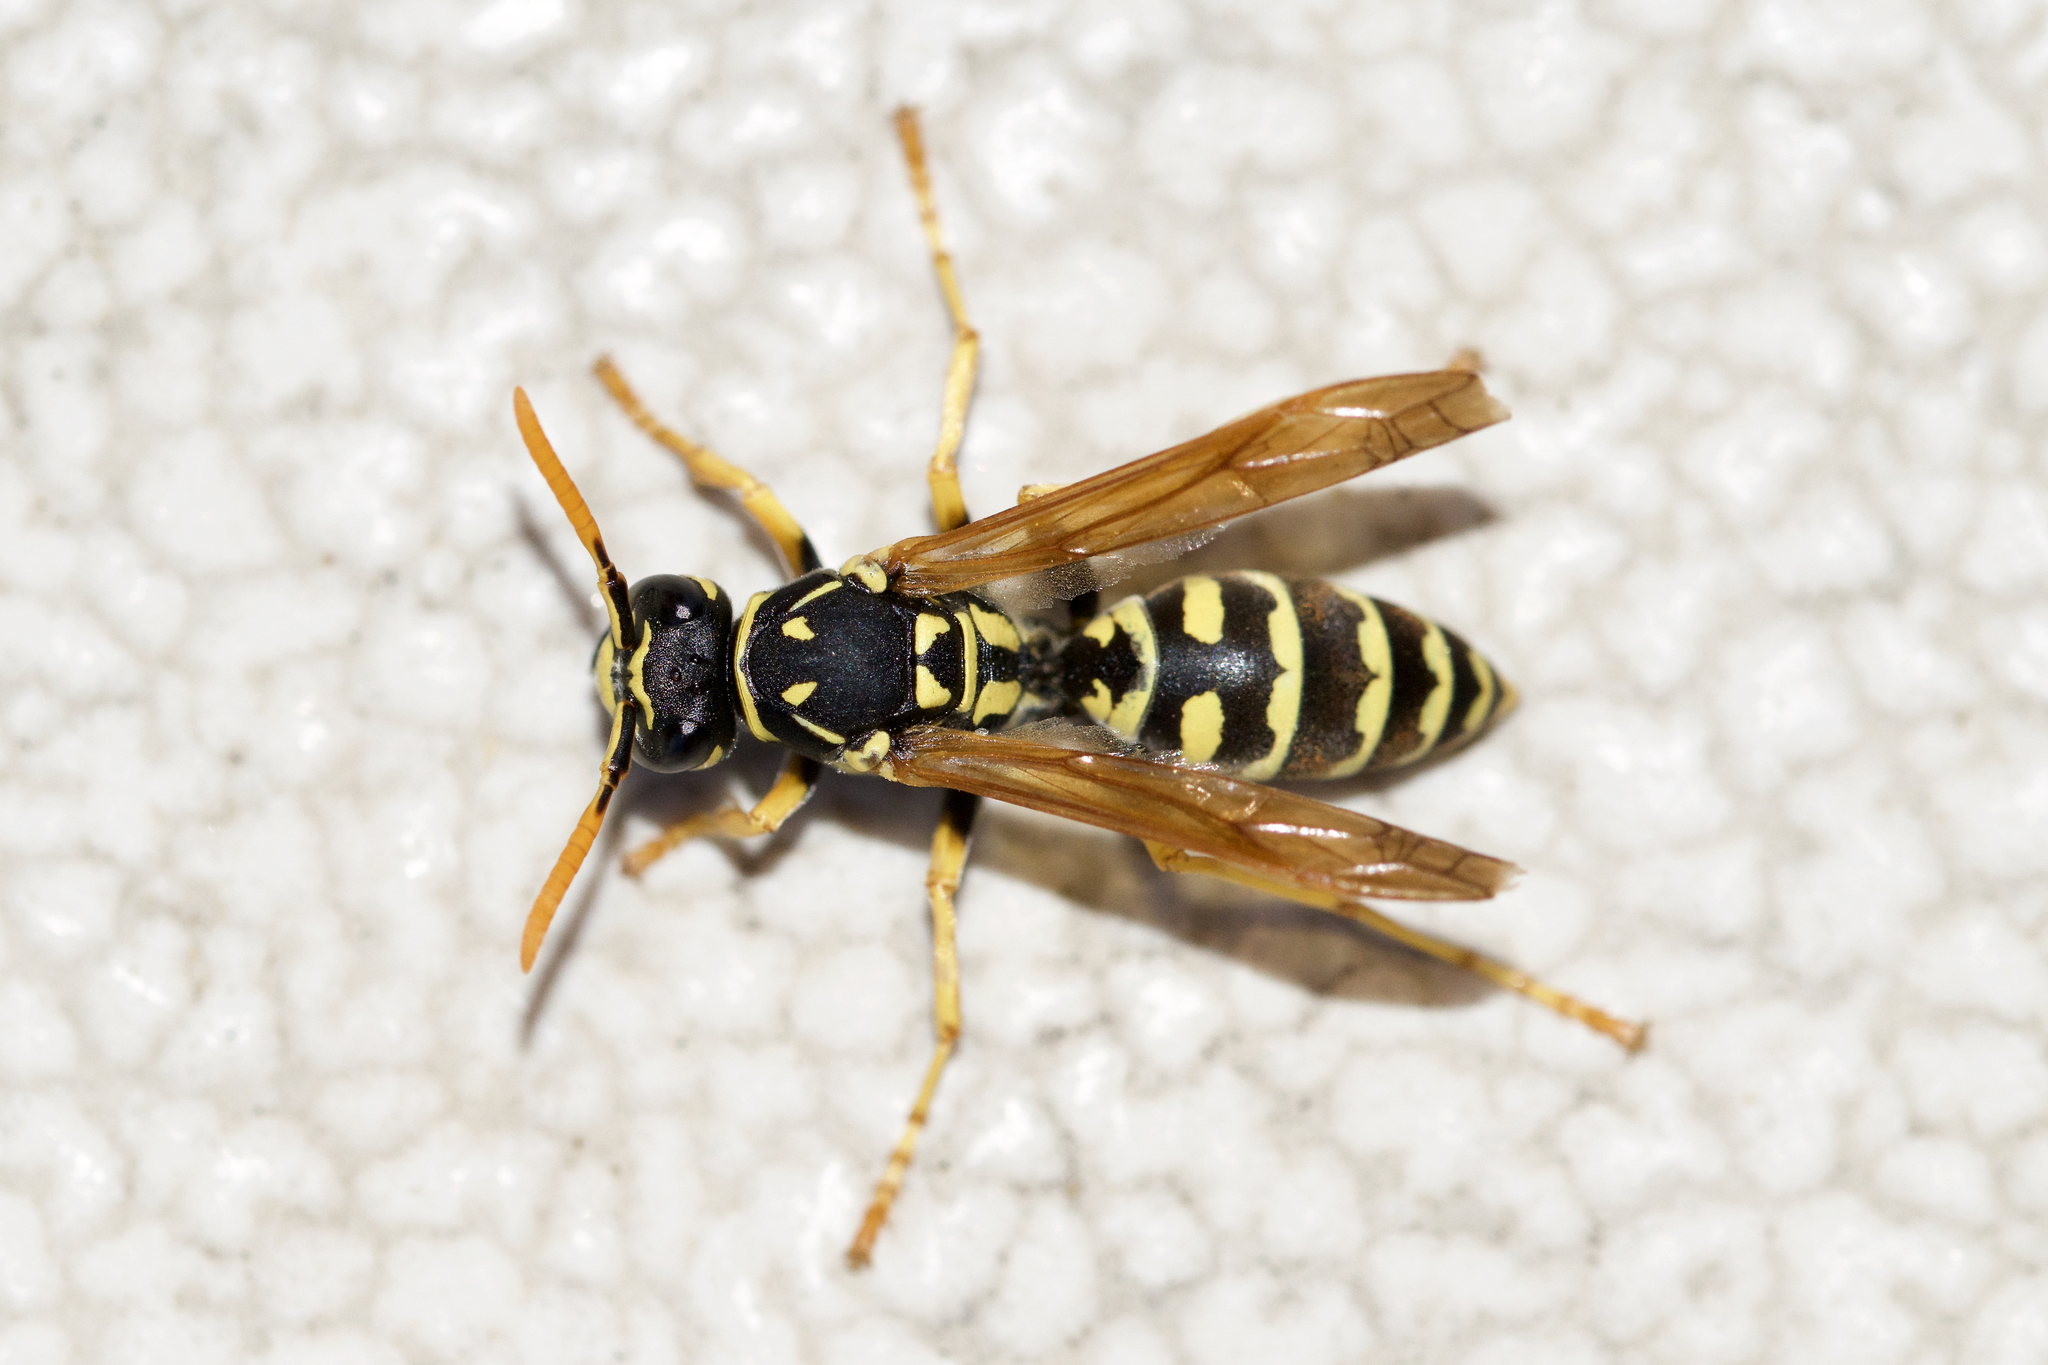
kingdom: Animalia
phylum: Arthropoda
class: Insecta
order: Hymenoptera
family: Eumenidae
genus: Polistes
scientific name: Polistes dominula
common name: Paper wasp
